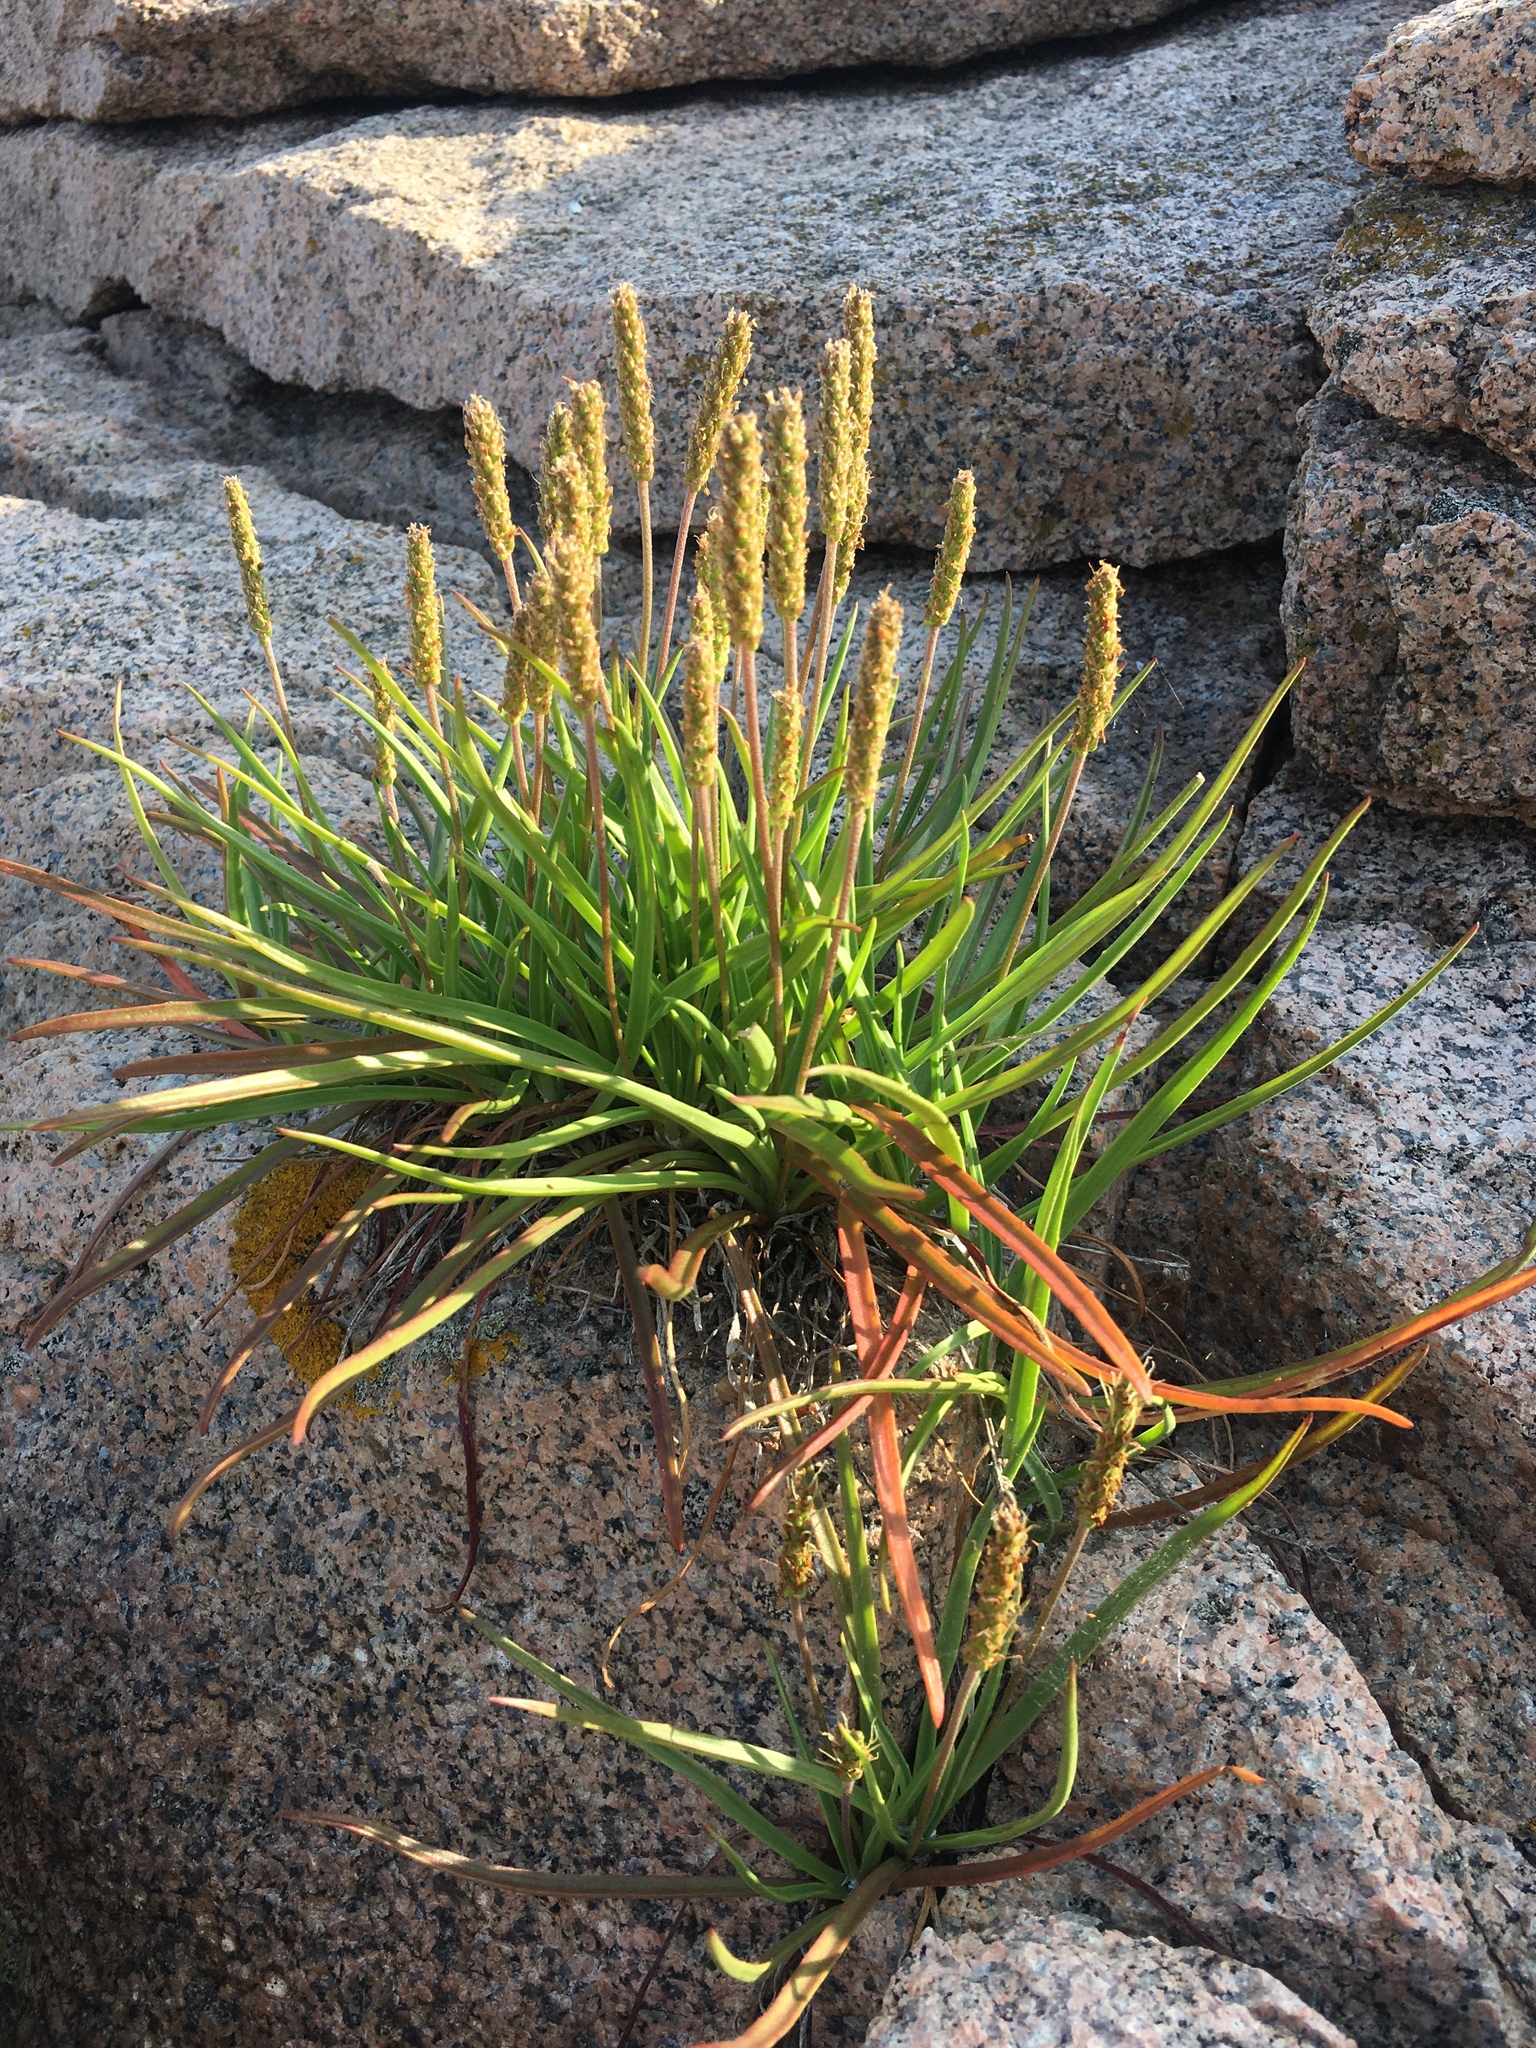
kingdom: Plantae
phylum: Tracheophyta
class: Magnoliopsida
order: Lamiales
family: Plantaginaceae
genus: Plantago
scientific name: Plantago maritima
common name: Sea plantain
